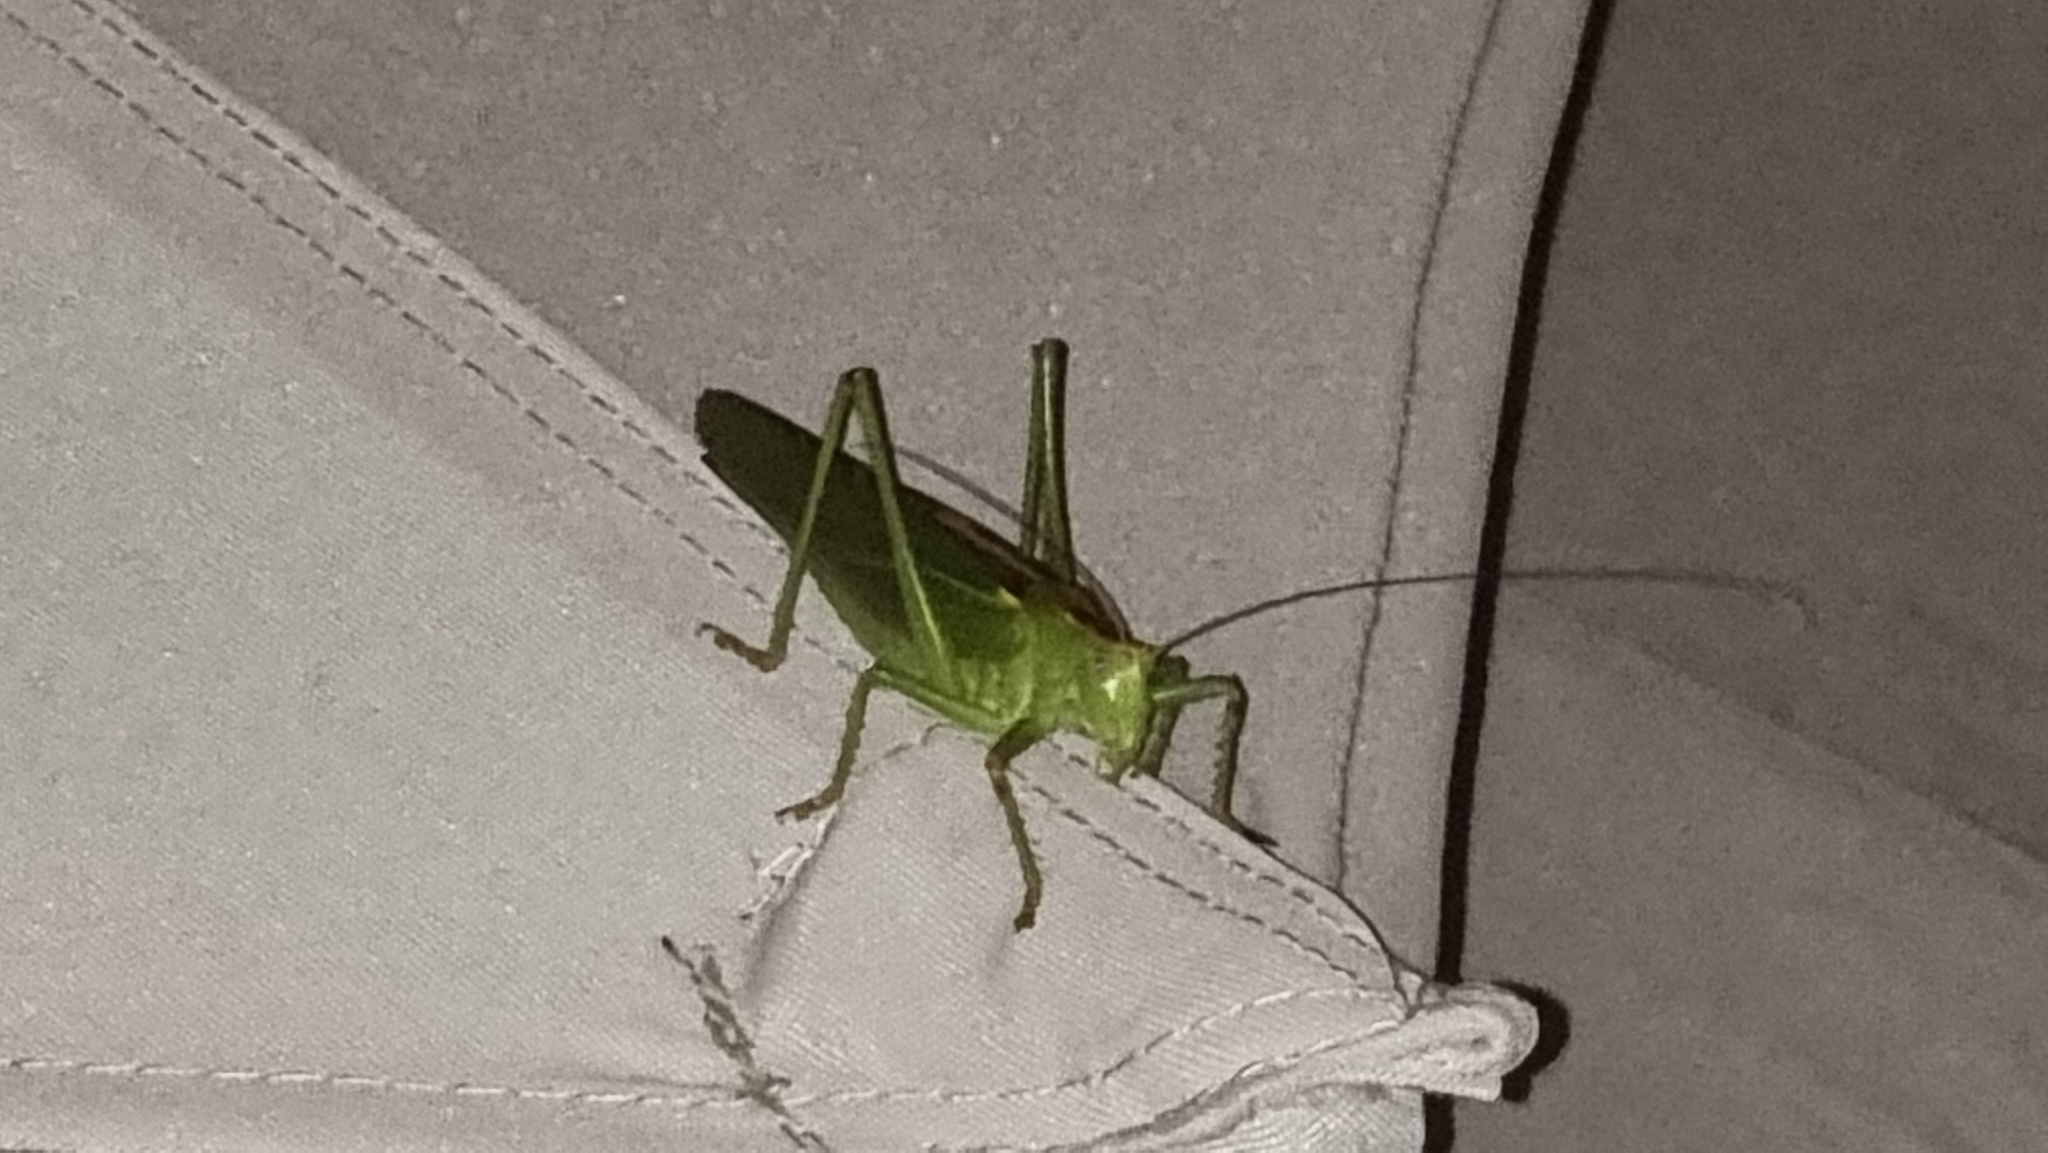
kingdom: Animalia
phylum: Arthropoda
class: Insecta
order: Orthoptera
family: Tettigoniidae
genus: Tettigonia
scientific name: Tettigonia viridissima
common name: Great green bush-cricket
